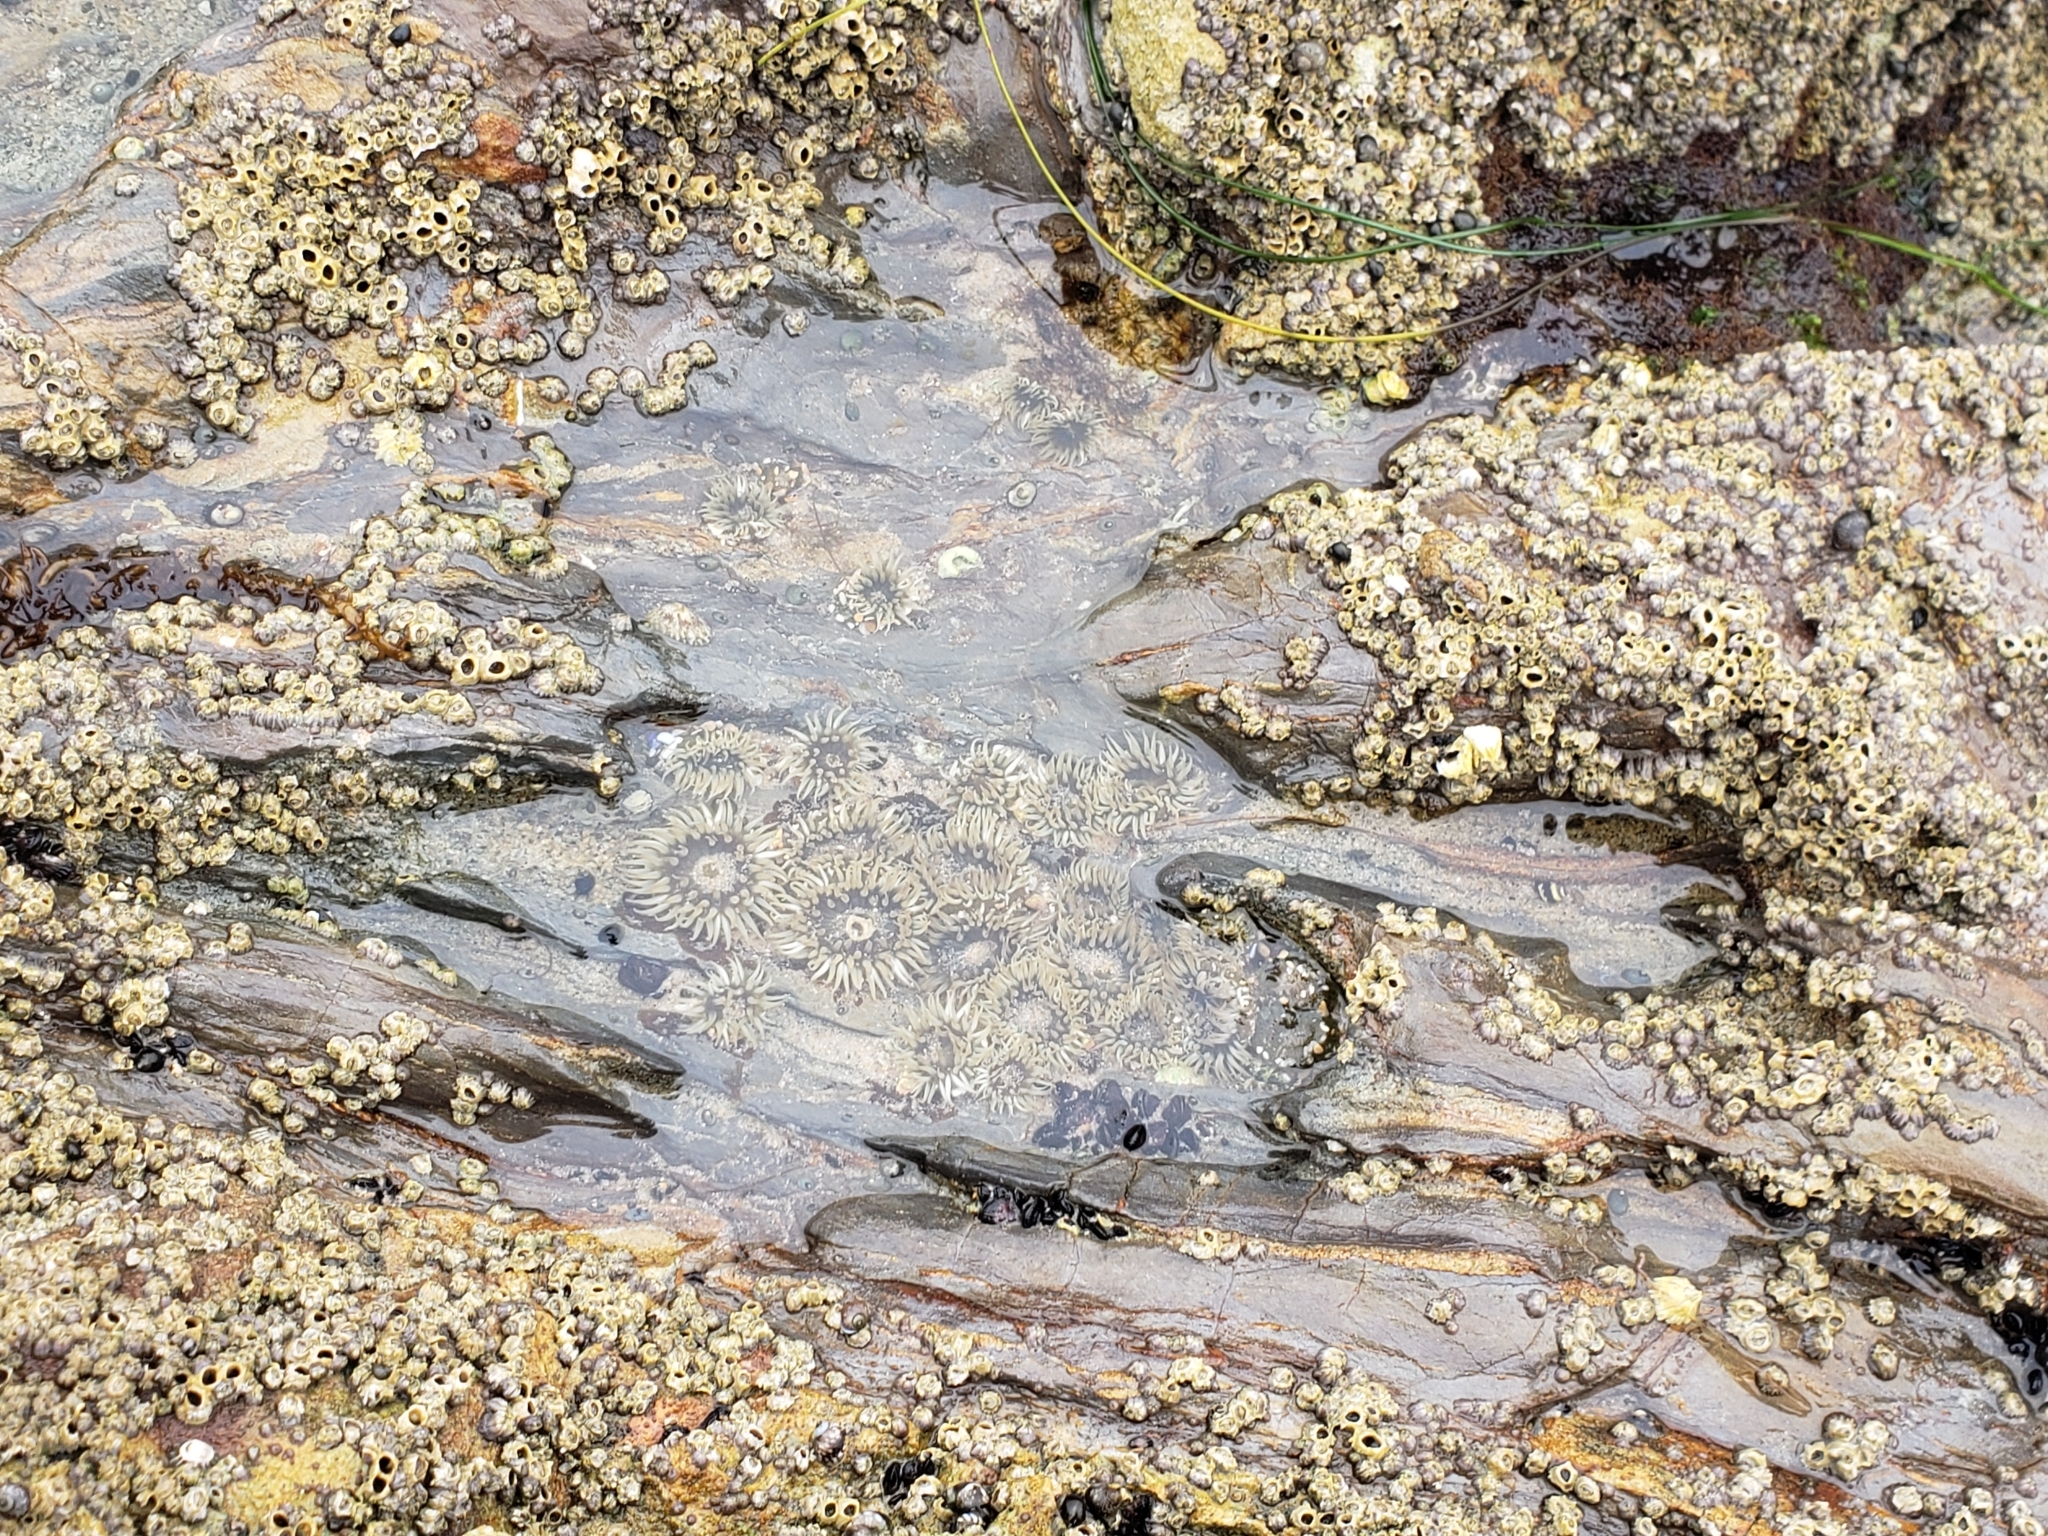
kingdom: Animalia
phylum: Cnidaria
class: Anthozoa
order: Actiniaria
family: Actiniidae
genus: Anthopleura
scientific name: Anthopleura elegantissima
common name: Clonal anemone
